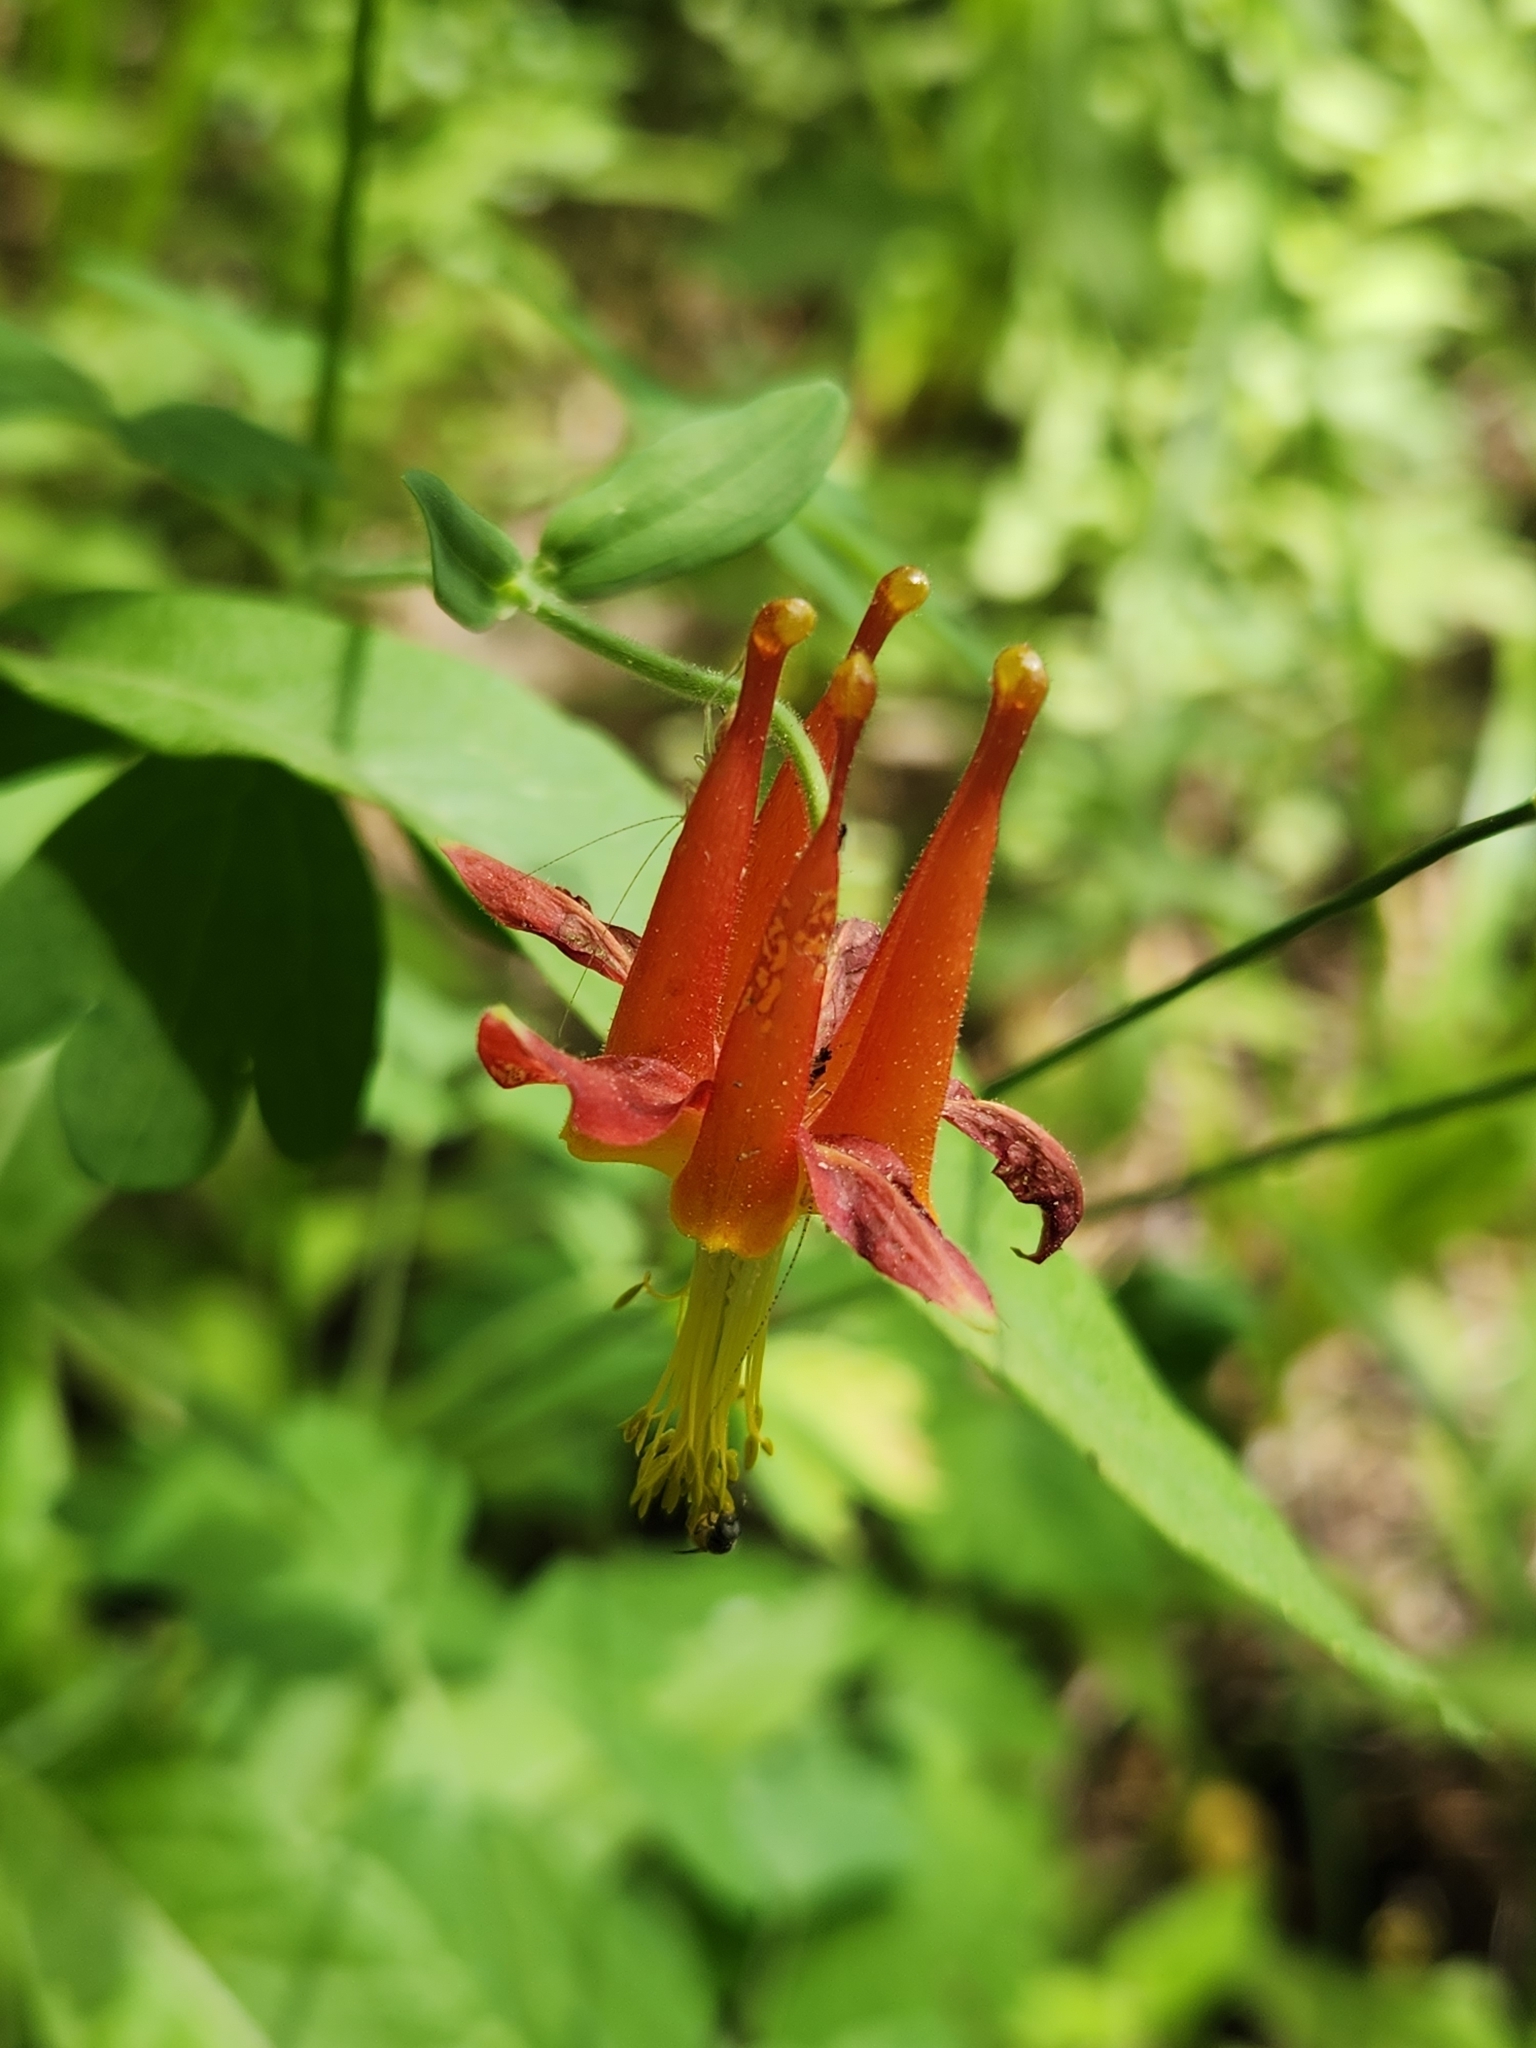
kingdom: Plantae
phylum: Tracheophyta
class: Magnoliopsida
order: Ranunculales
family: Ranunculaceae
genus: Aquilegia
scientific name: Aquilegia formosa
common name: Sitka columbine
